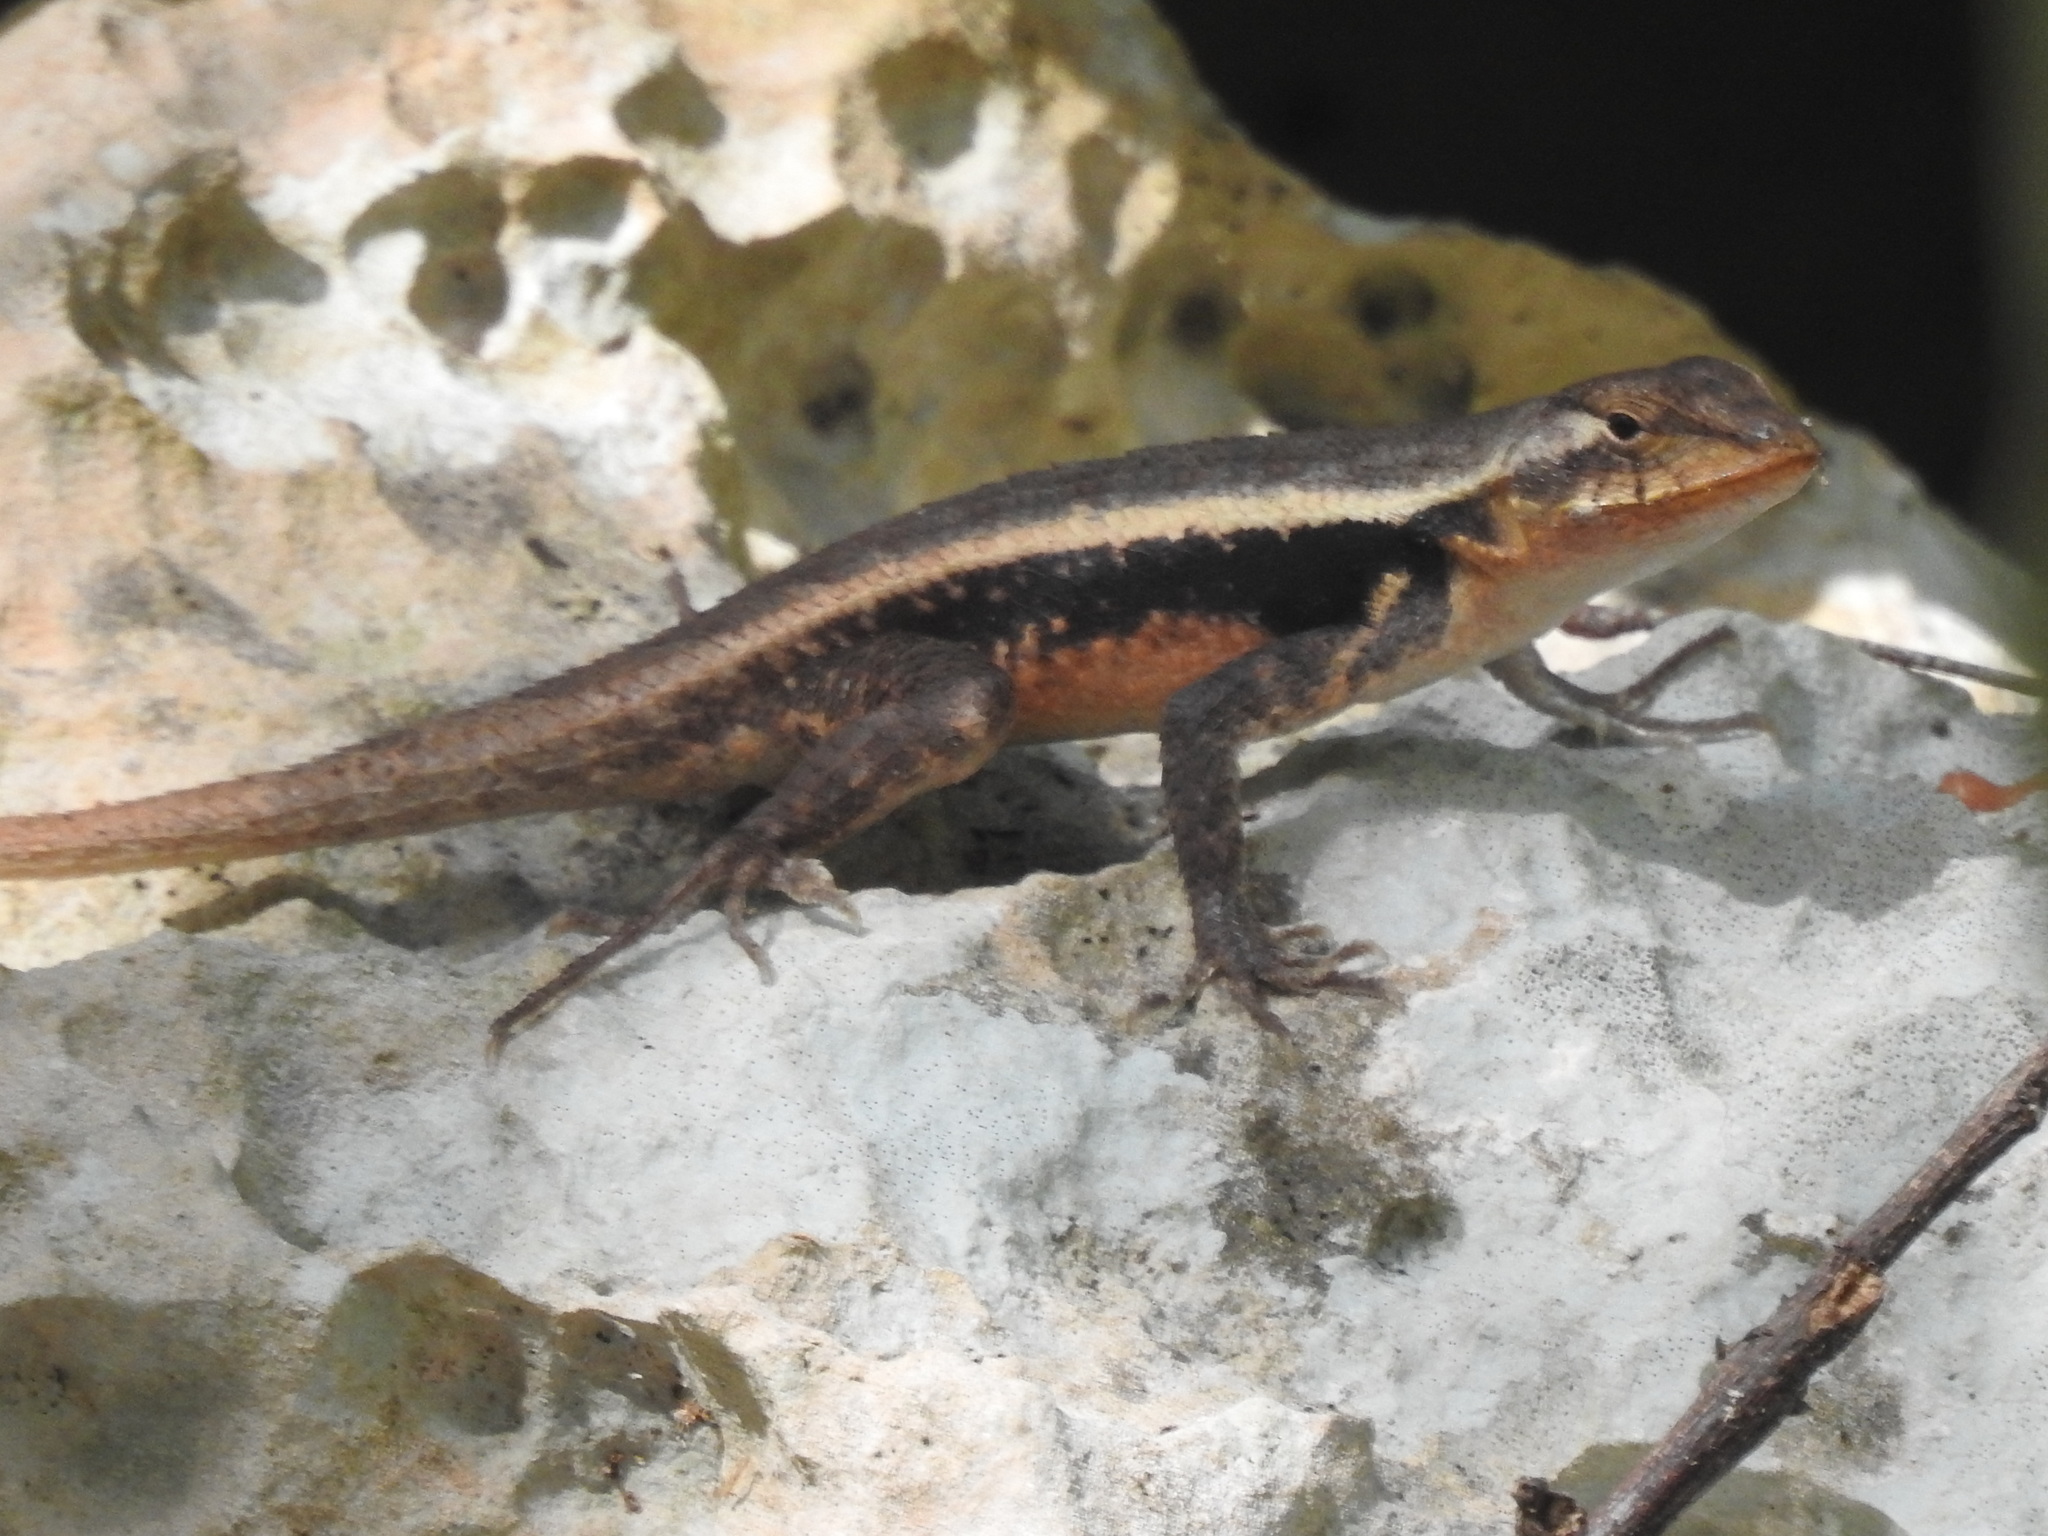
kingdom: Animalia
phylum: Chordata
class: Squamata
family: Phrynosomatidae
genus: Sceloporus
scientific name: Sceloporus chrysostictus
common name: Yellow-spotted spiny lizard
